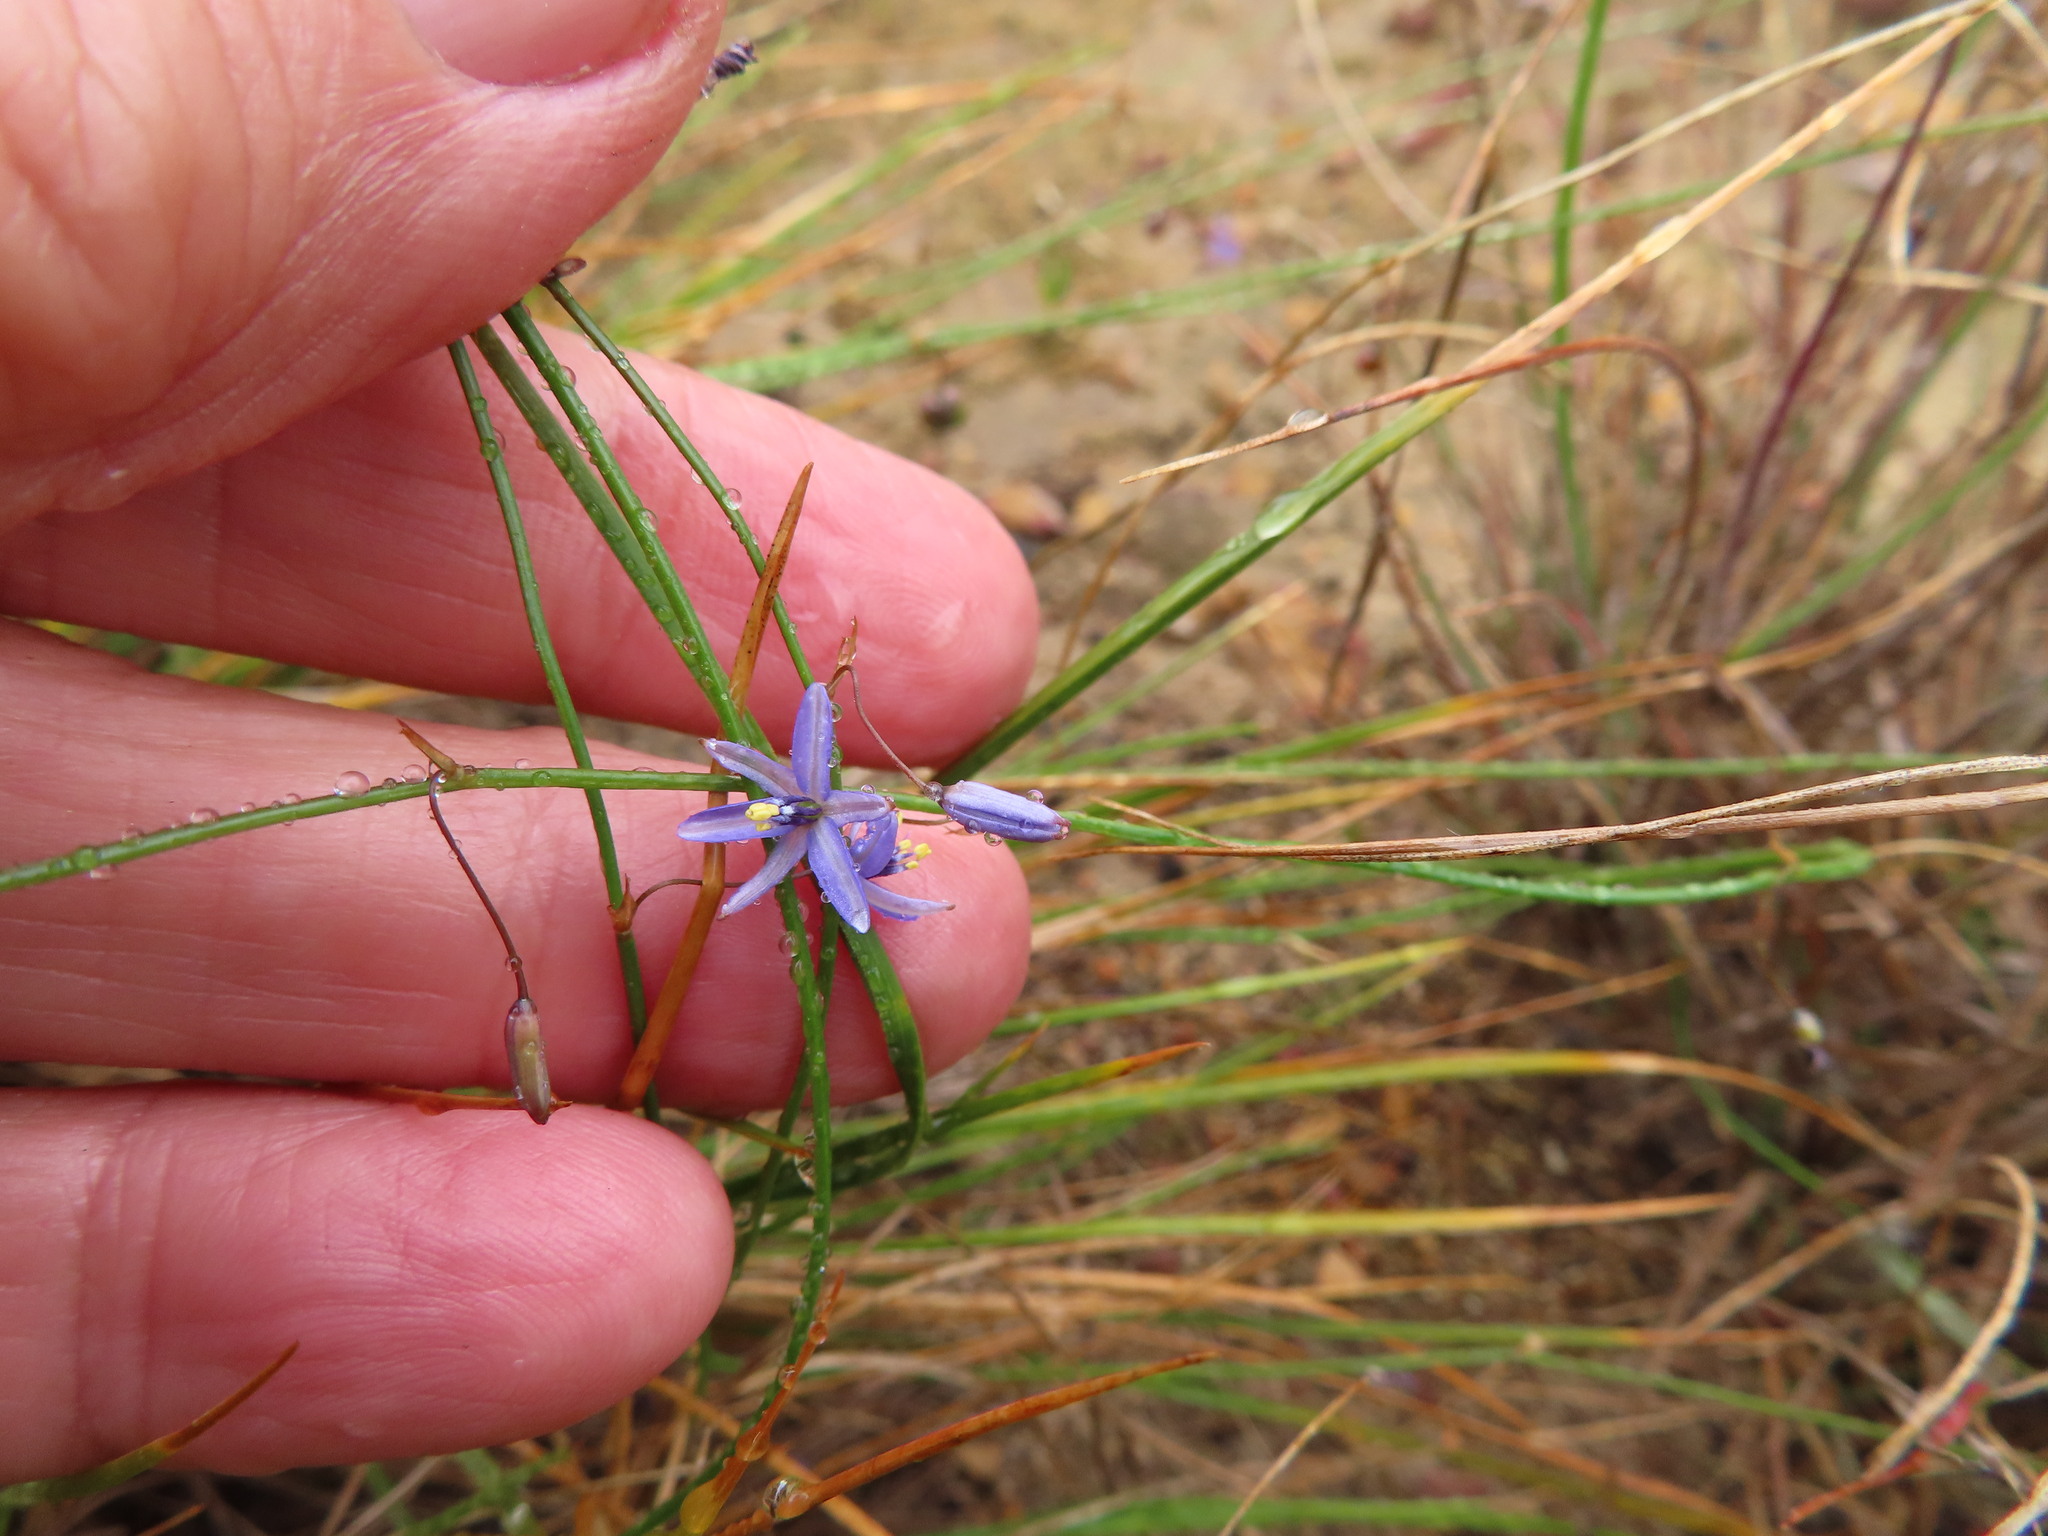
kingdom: Plantae
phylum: Tracheophyta
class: Liliopsida
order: Asparagales
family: Asphodelaceae
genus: Caesia
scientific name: Caesia contorta
